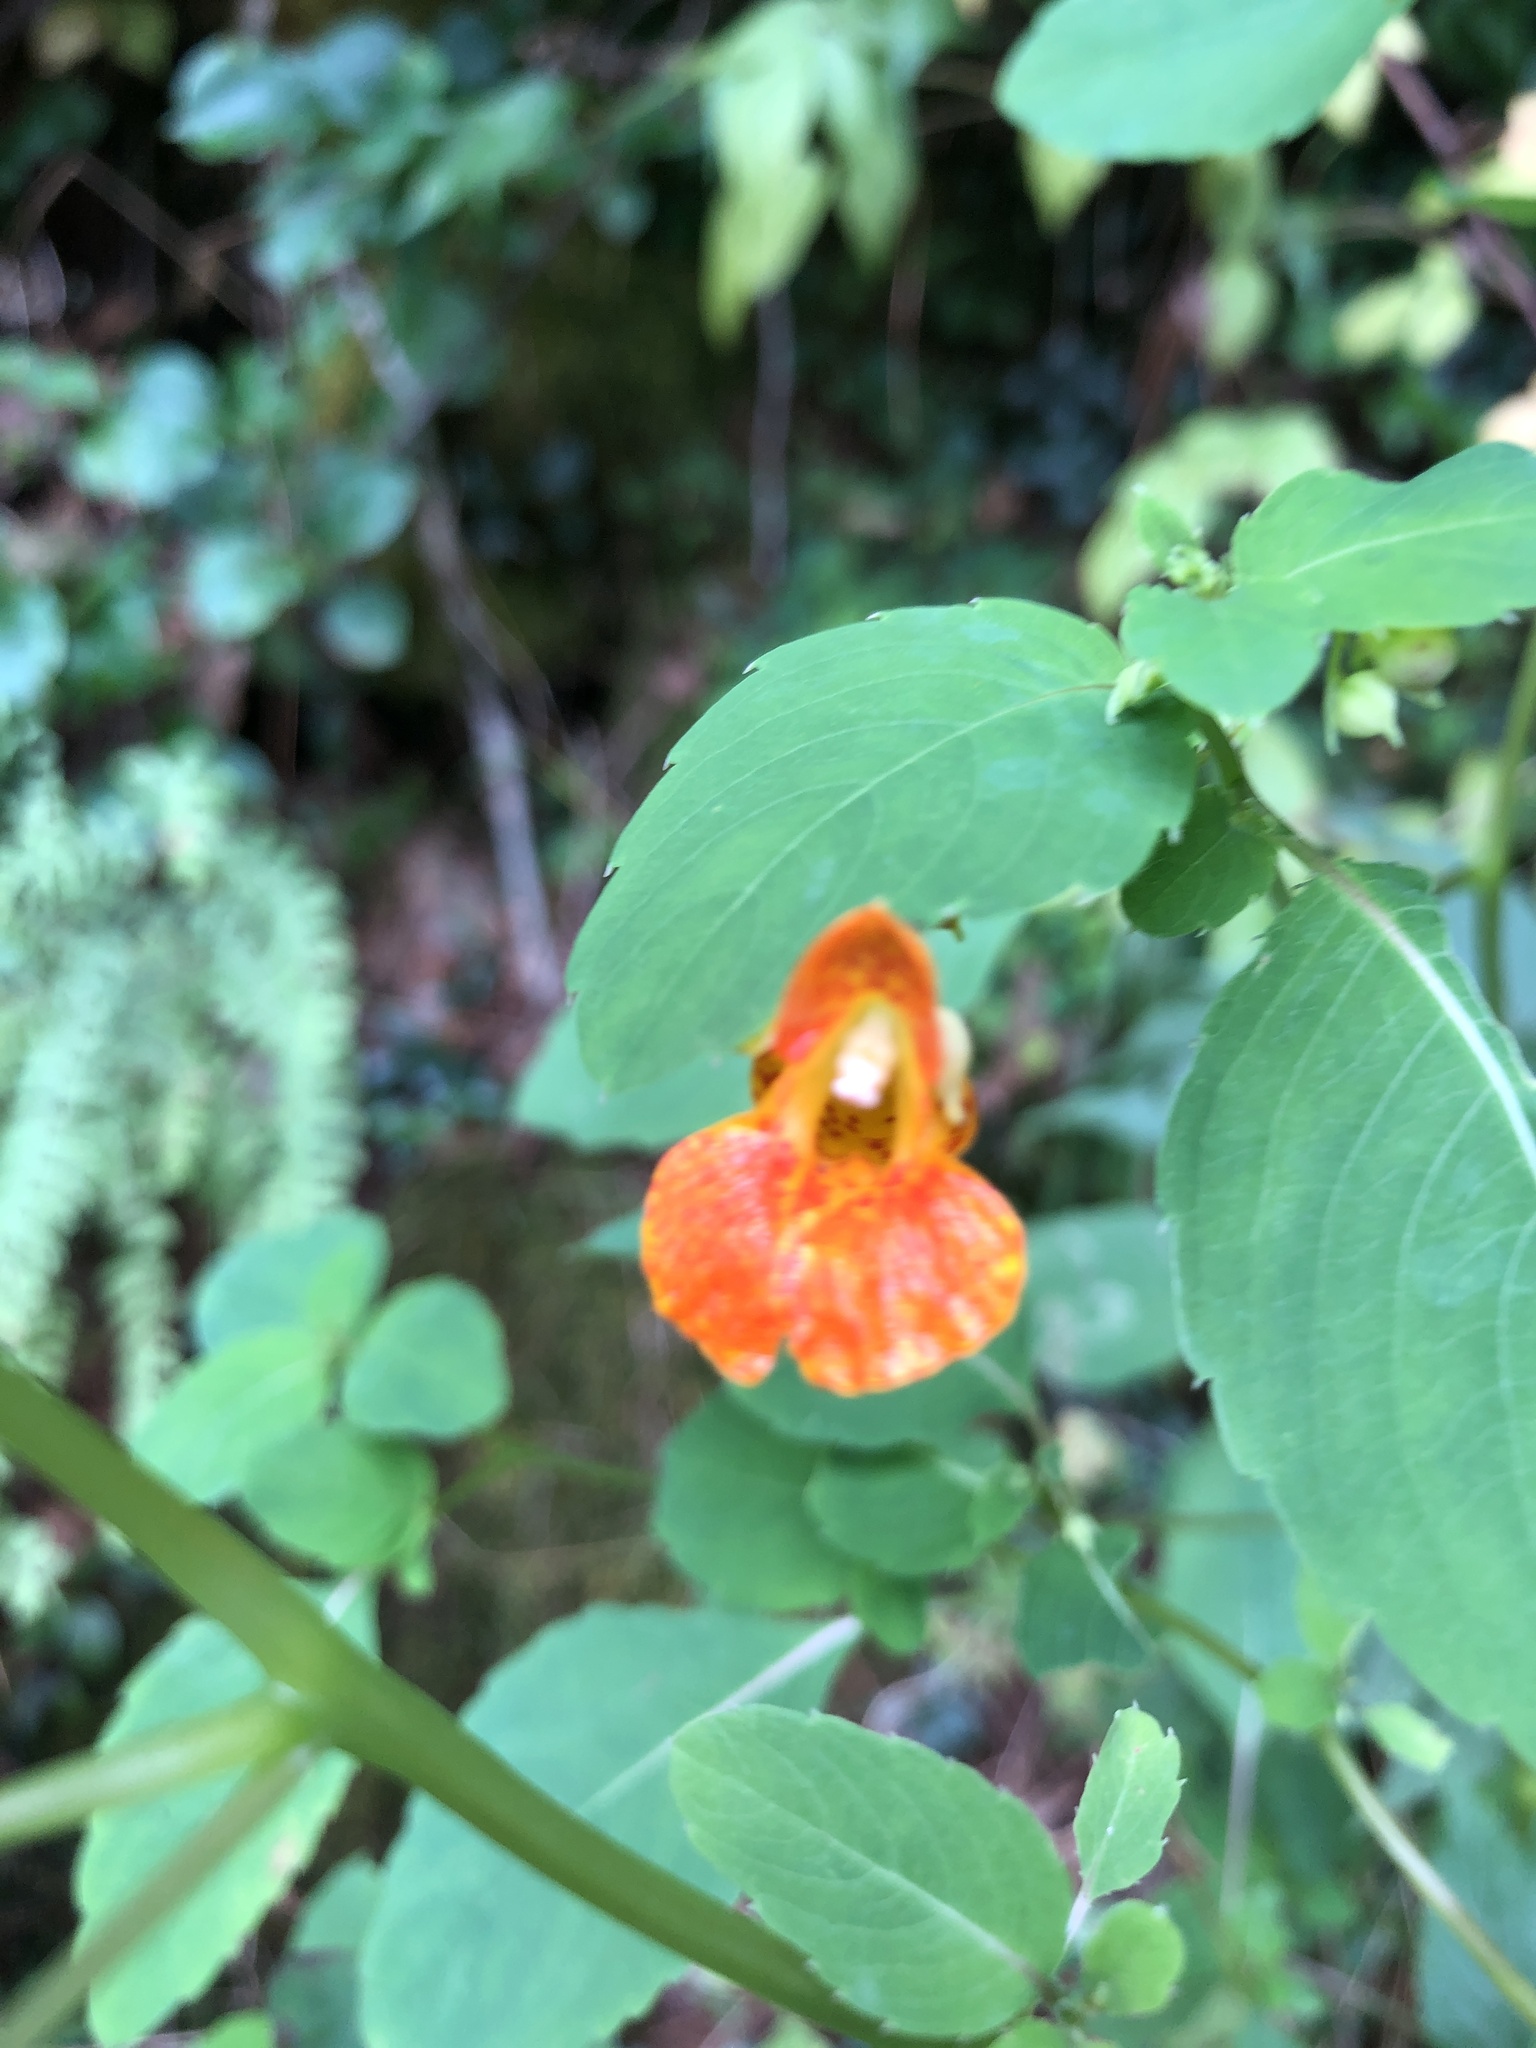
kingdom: Plantae
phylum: Tracheophyta
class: Magnoliopsida
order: Ericales
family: Balsaminaceae
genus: Impatiens
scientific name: Impatiens capensis
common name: Orange balsam
